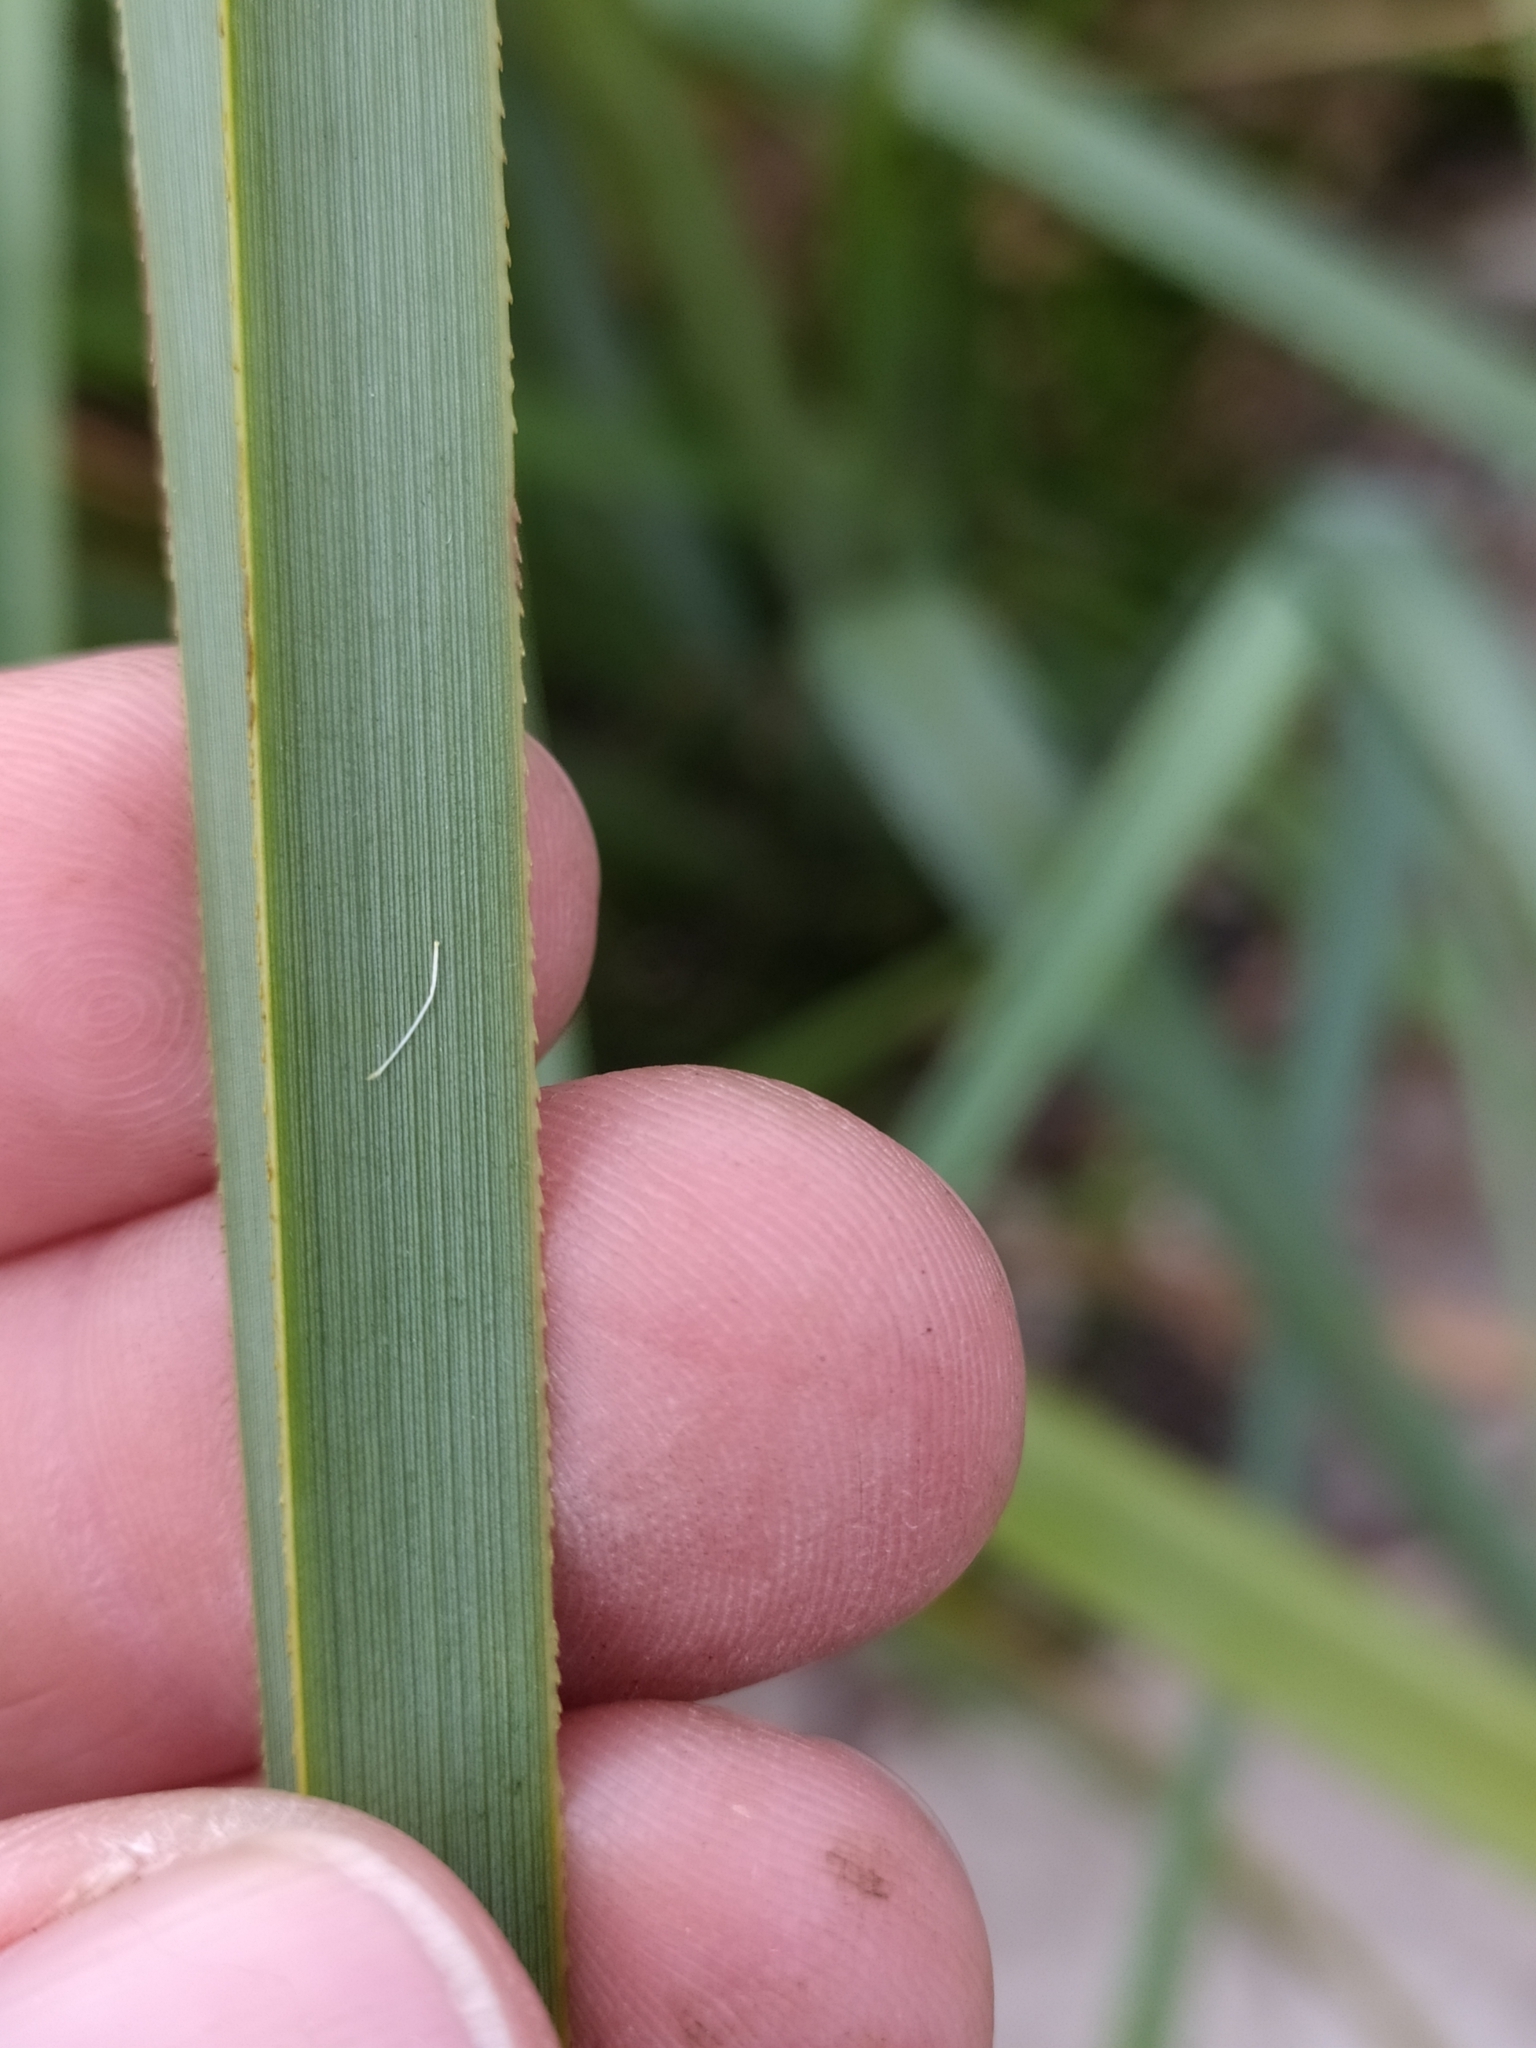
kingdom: Plantae
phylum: Tracheophyta
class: Liliopsida
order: Poales
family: Poaceae
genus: Cortaderia
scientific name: Cortaderia selloana
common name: Uruguayan pampas grass
